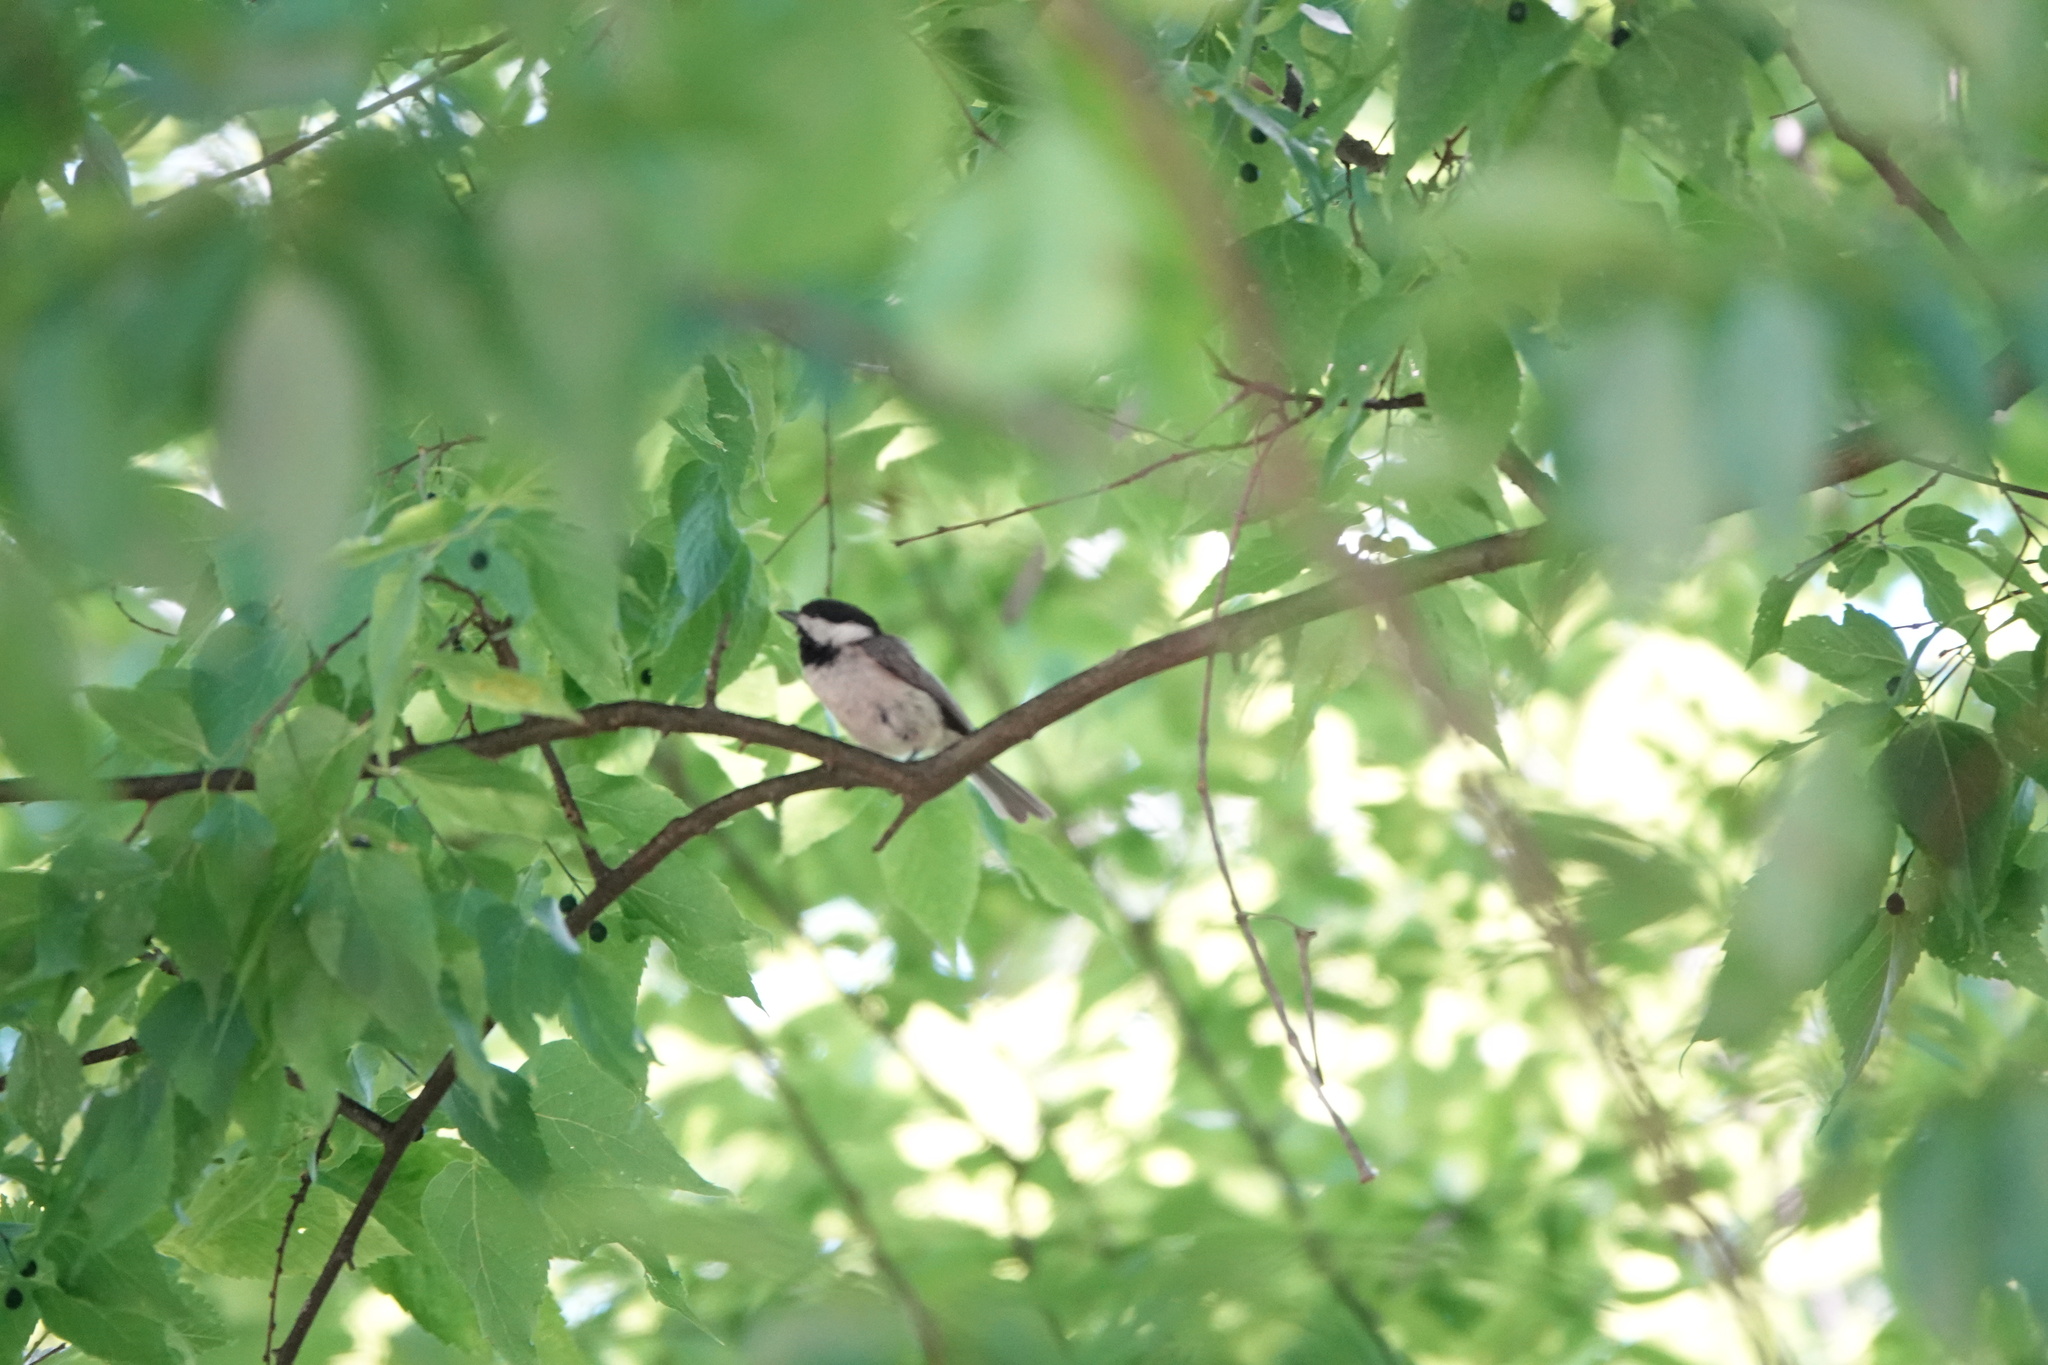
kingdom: Animalia
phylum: Chordata
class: Aves
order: Passeriformes
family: Paridae
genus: Poecile
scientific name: Poecile carolinensis
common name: Carolina chickadee
